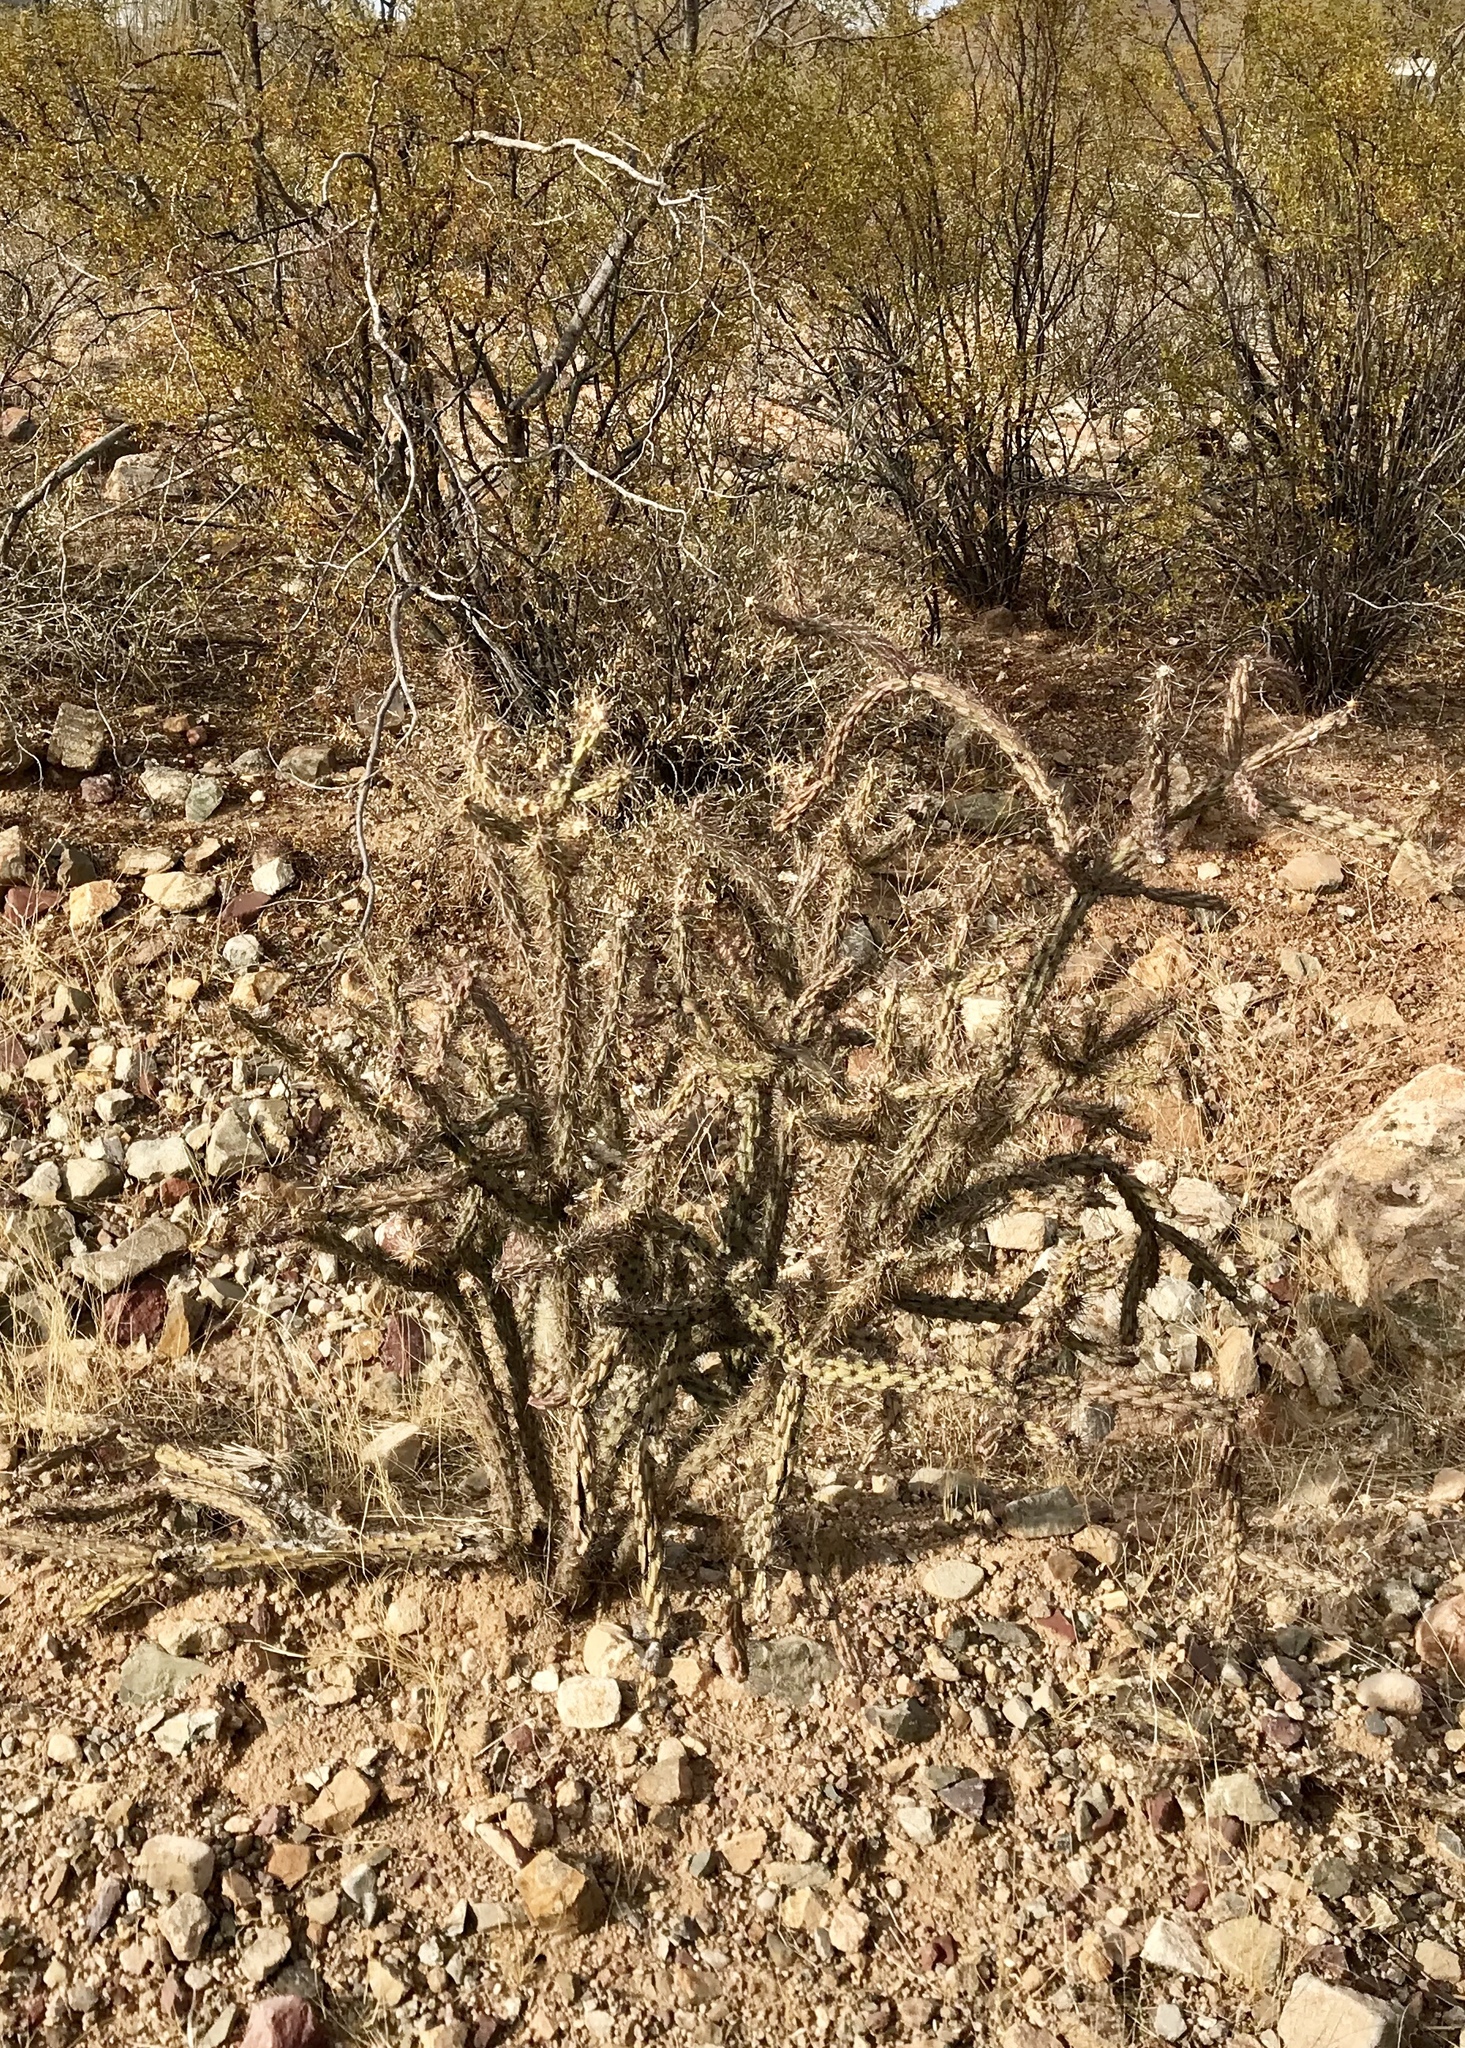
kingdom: Plantae
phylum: Tracheophyta
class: Magnoliopsida
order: Caryophyllales
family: Cactaceae
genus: Cylindropuntia
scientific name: Cylindropuntia acanthocarpa
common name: Buckhorn cholla
